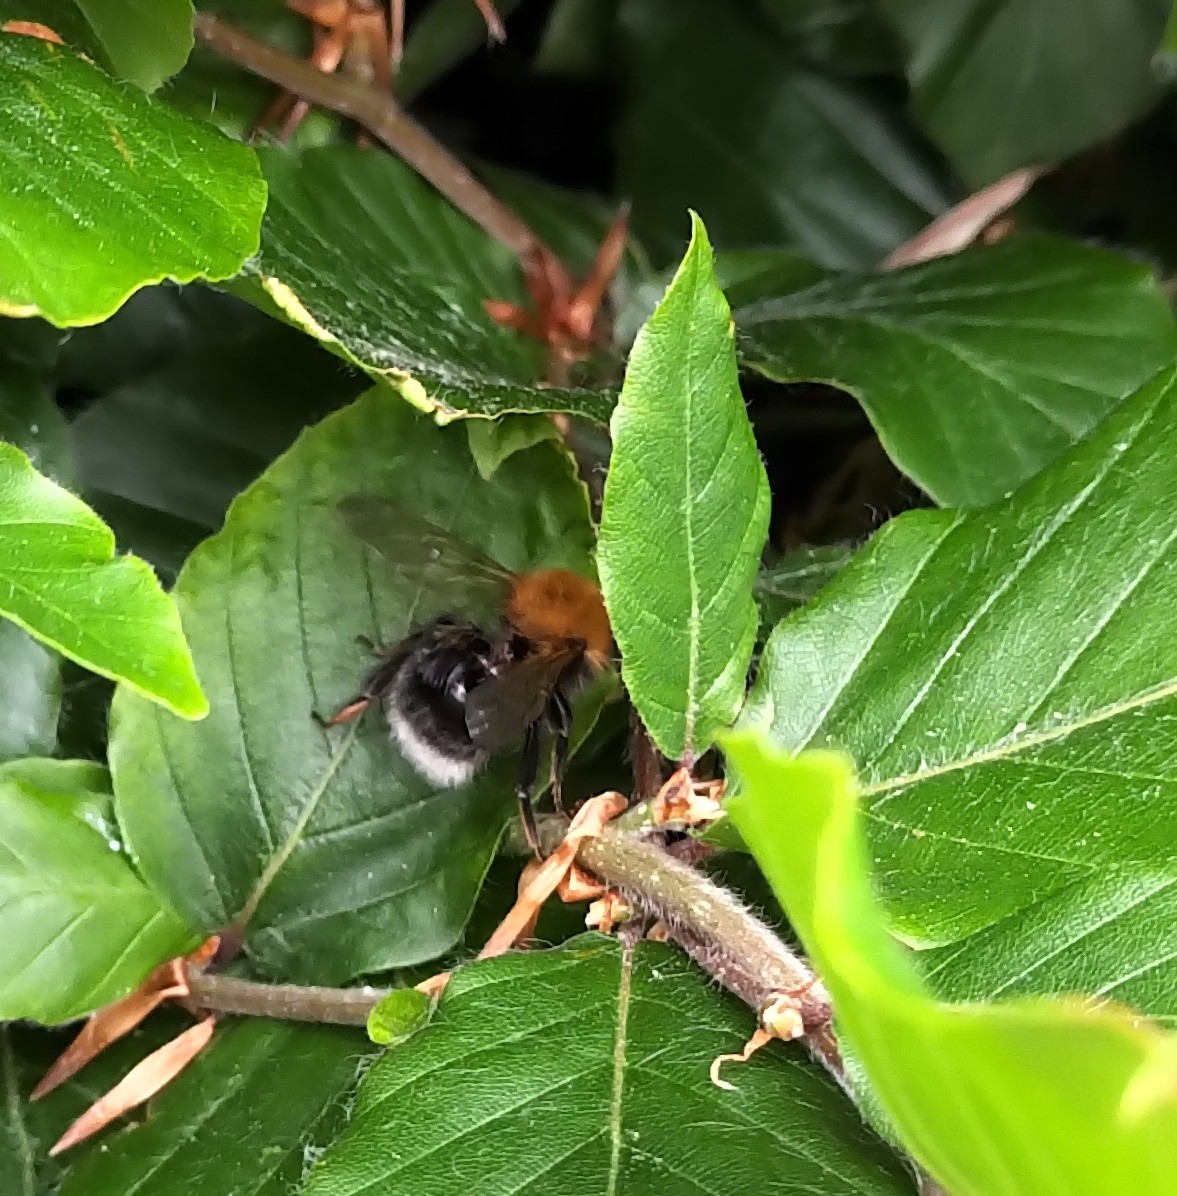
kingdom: Animalia
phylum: Arthropoda
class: Insecta
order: Hymenoptera
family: Apidae
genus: Bombus
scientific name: Bombus hypnorum
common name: New garden bumblebee
